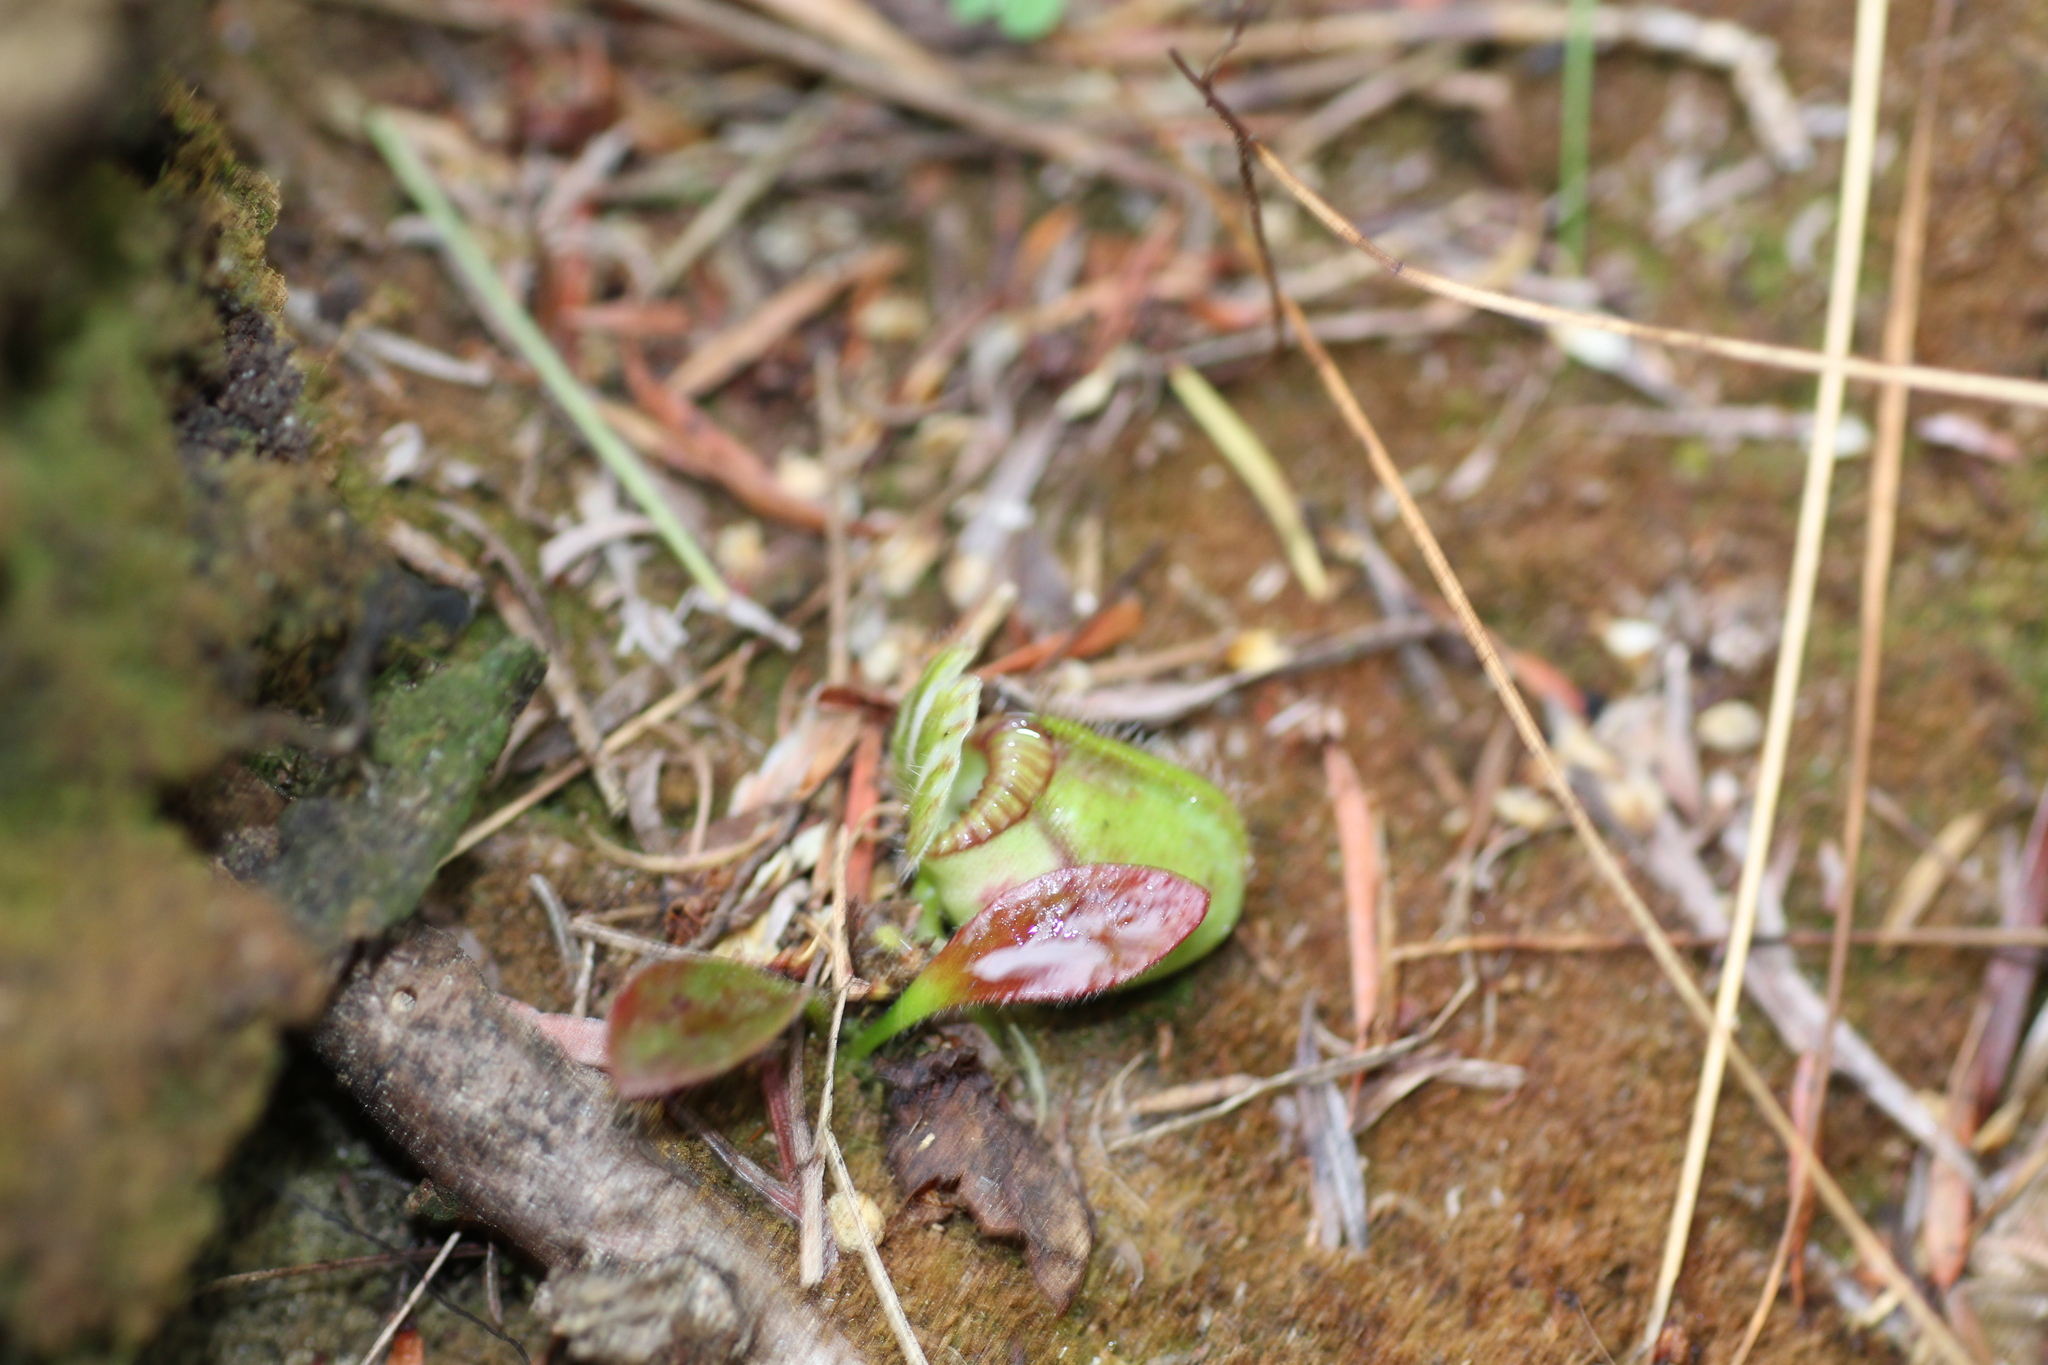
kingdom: Plantae
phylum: Tracheophyta
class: Magnoliopsida
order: Oxalidales
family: Cephalotaceae
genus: Cephalotus
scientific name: Cephalotus follicularis
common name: Australian pitcher plant
